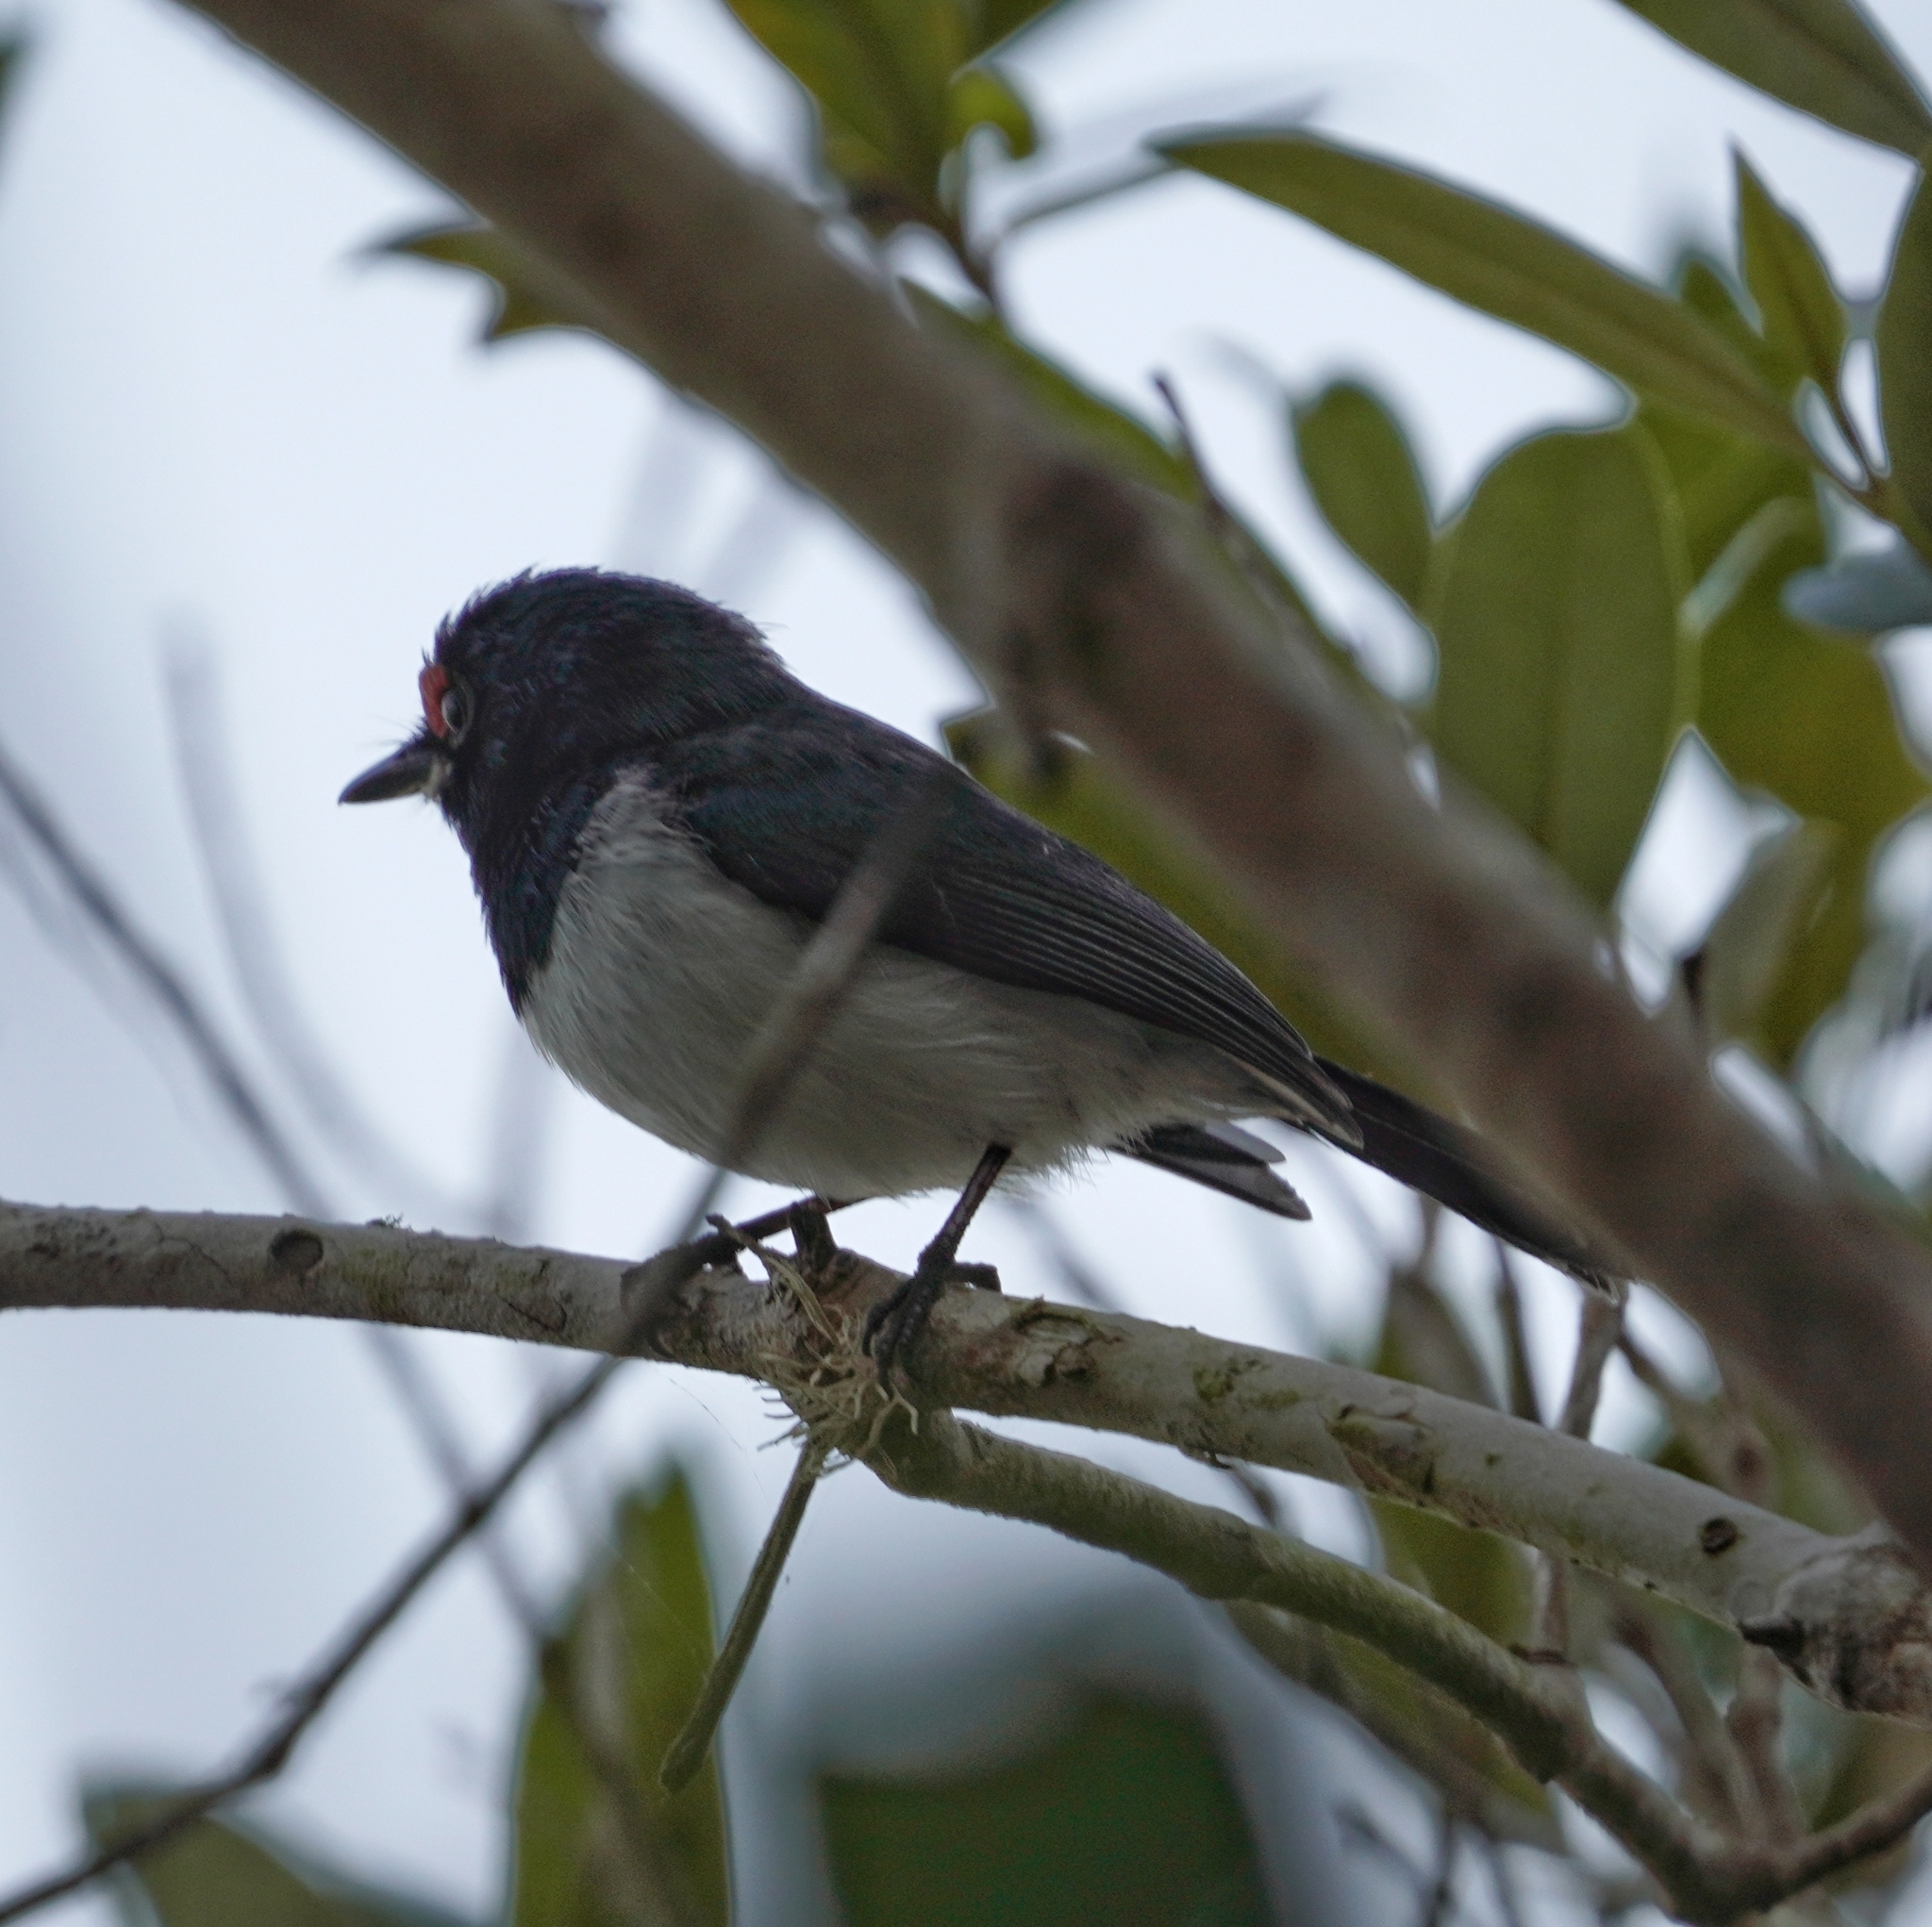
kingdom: Animalia
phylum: Chordata
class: Aves
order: Passeriformes
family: Platysteiridae
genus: Platysteira
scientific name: Platysteira peltata
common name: Black-throated wattle-eye
